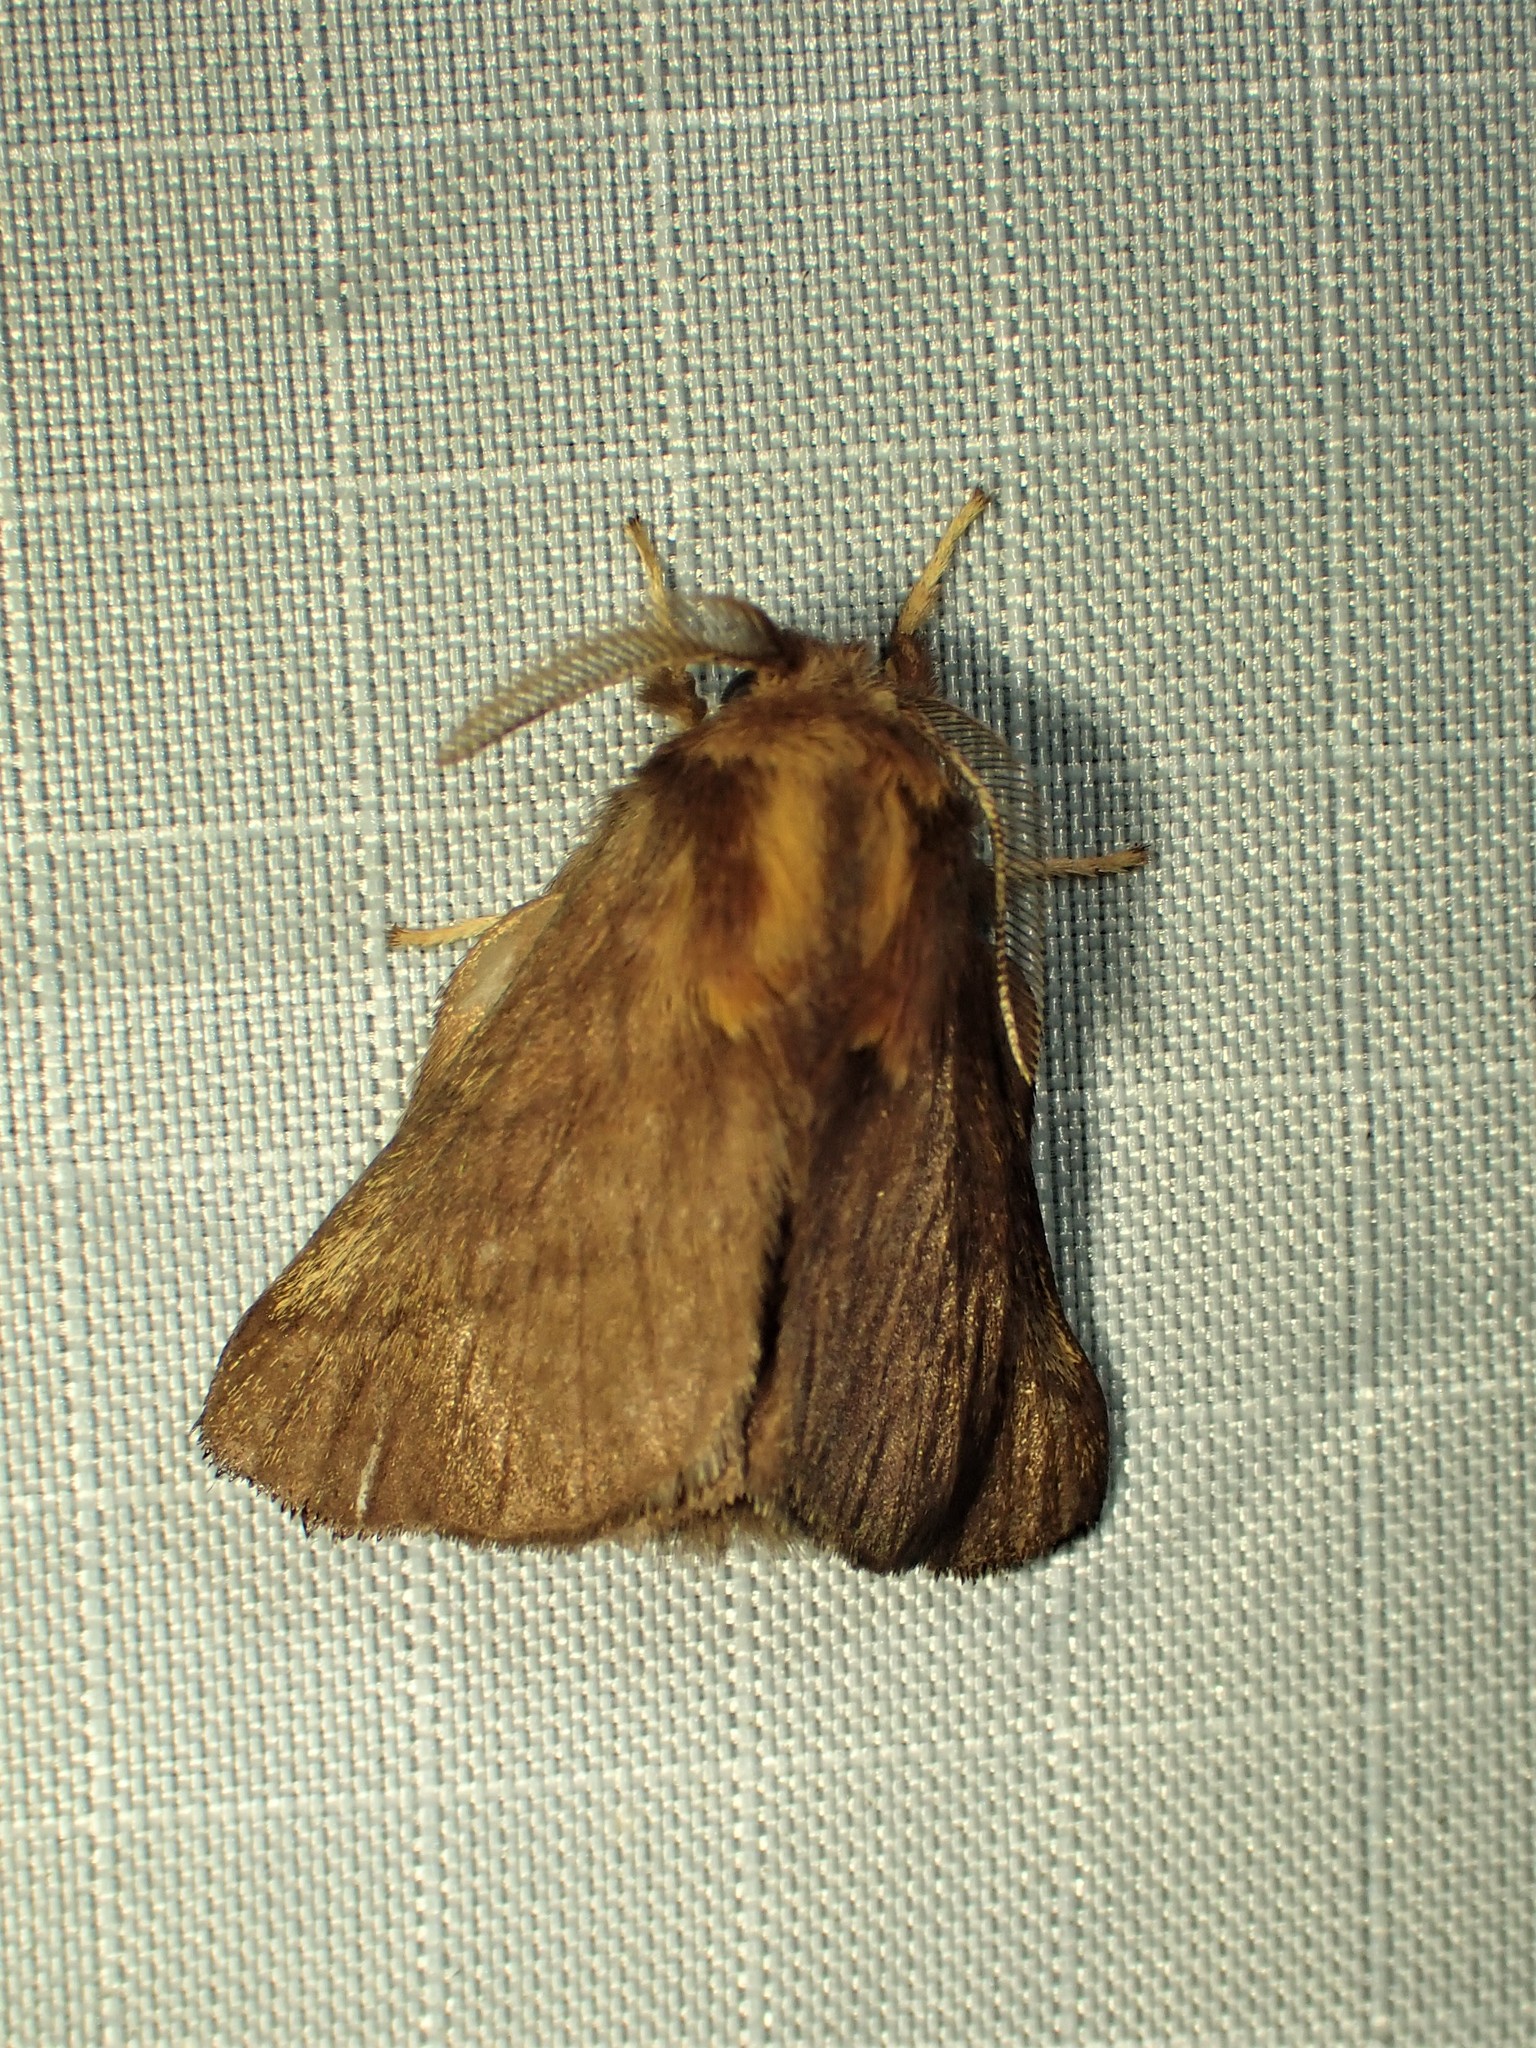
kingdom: Animalia
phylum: Arthropoda
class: Insecta
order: Lepidoptera
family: Lasiocampidae
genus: Malacosoma
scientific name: Malacosoma disstria
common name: Forest tent caterpillar
